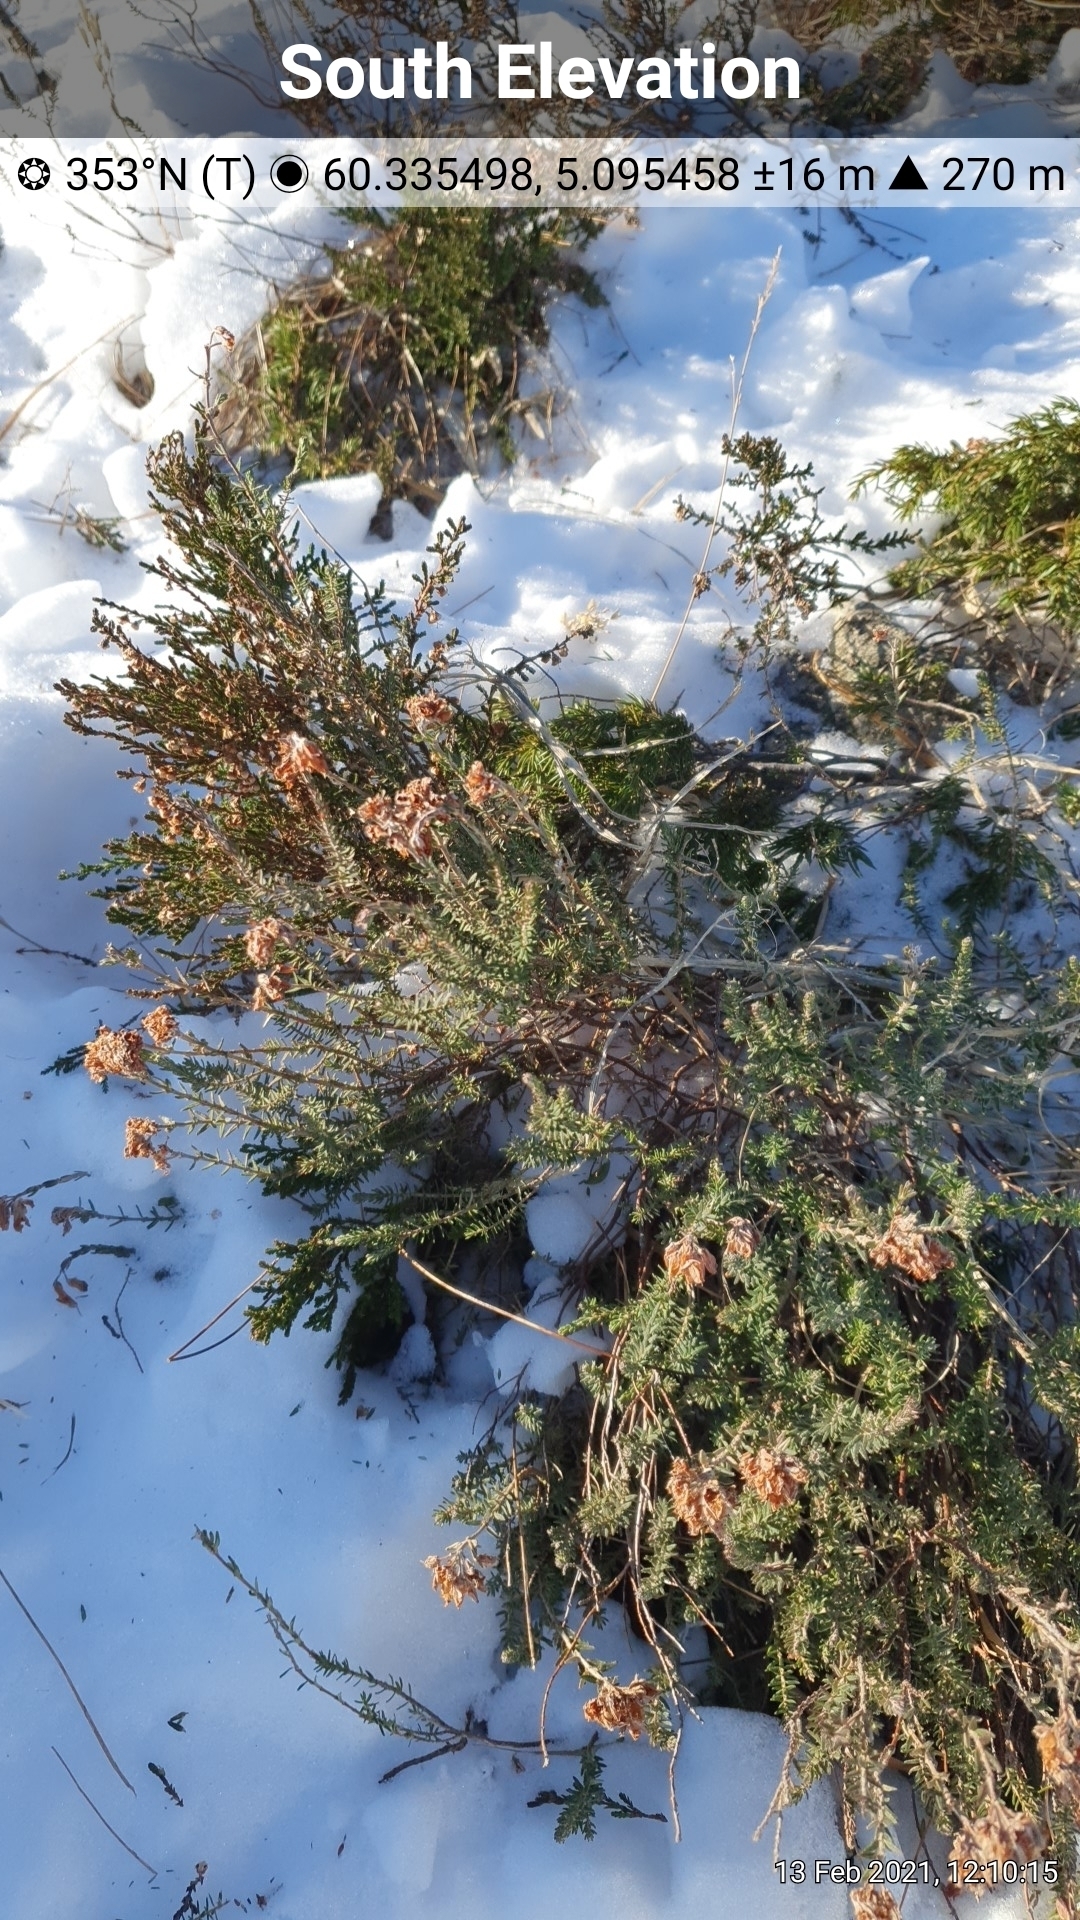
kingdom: Plantae
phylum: Tracheophyta
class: Magnoliopsida
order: Ericales
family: Ericaceae
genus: Erica
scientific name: Erica tetralix
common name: Cross-leaved heath
